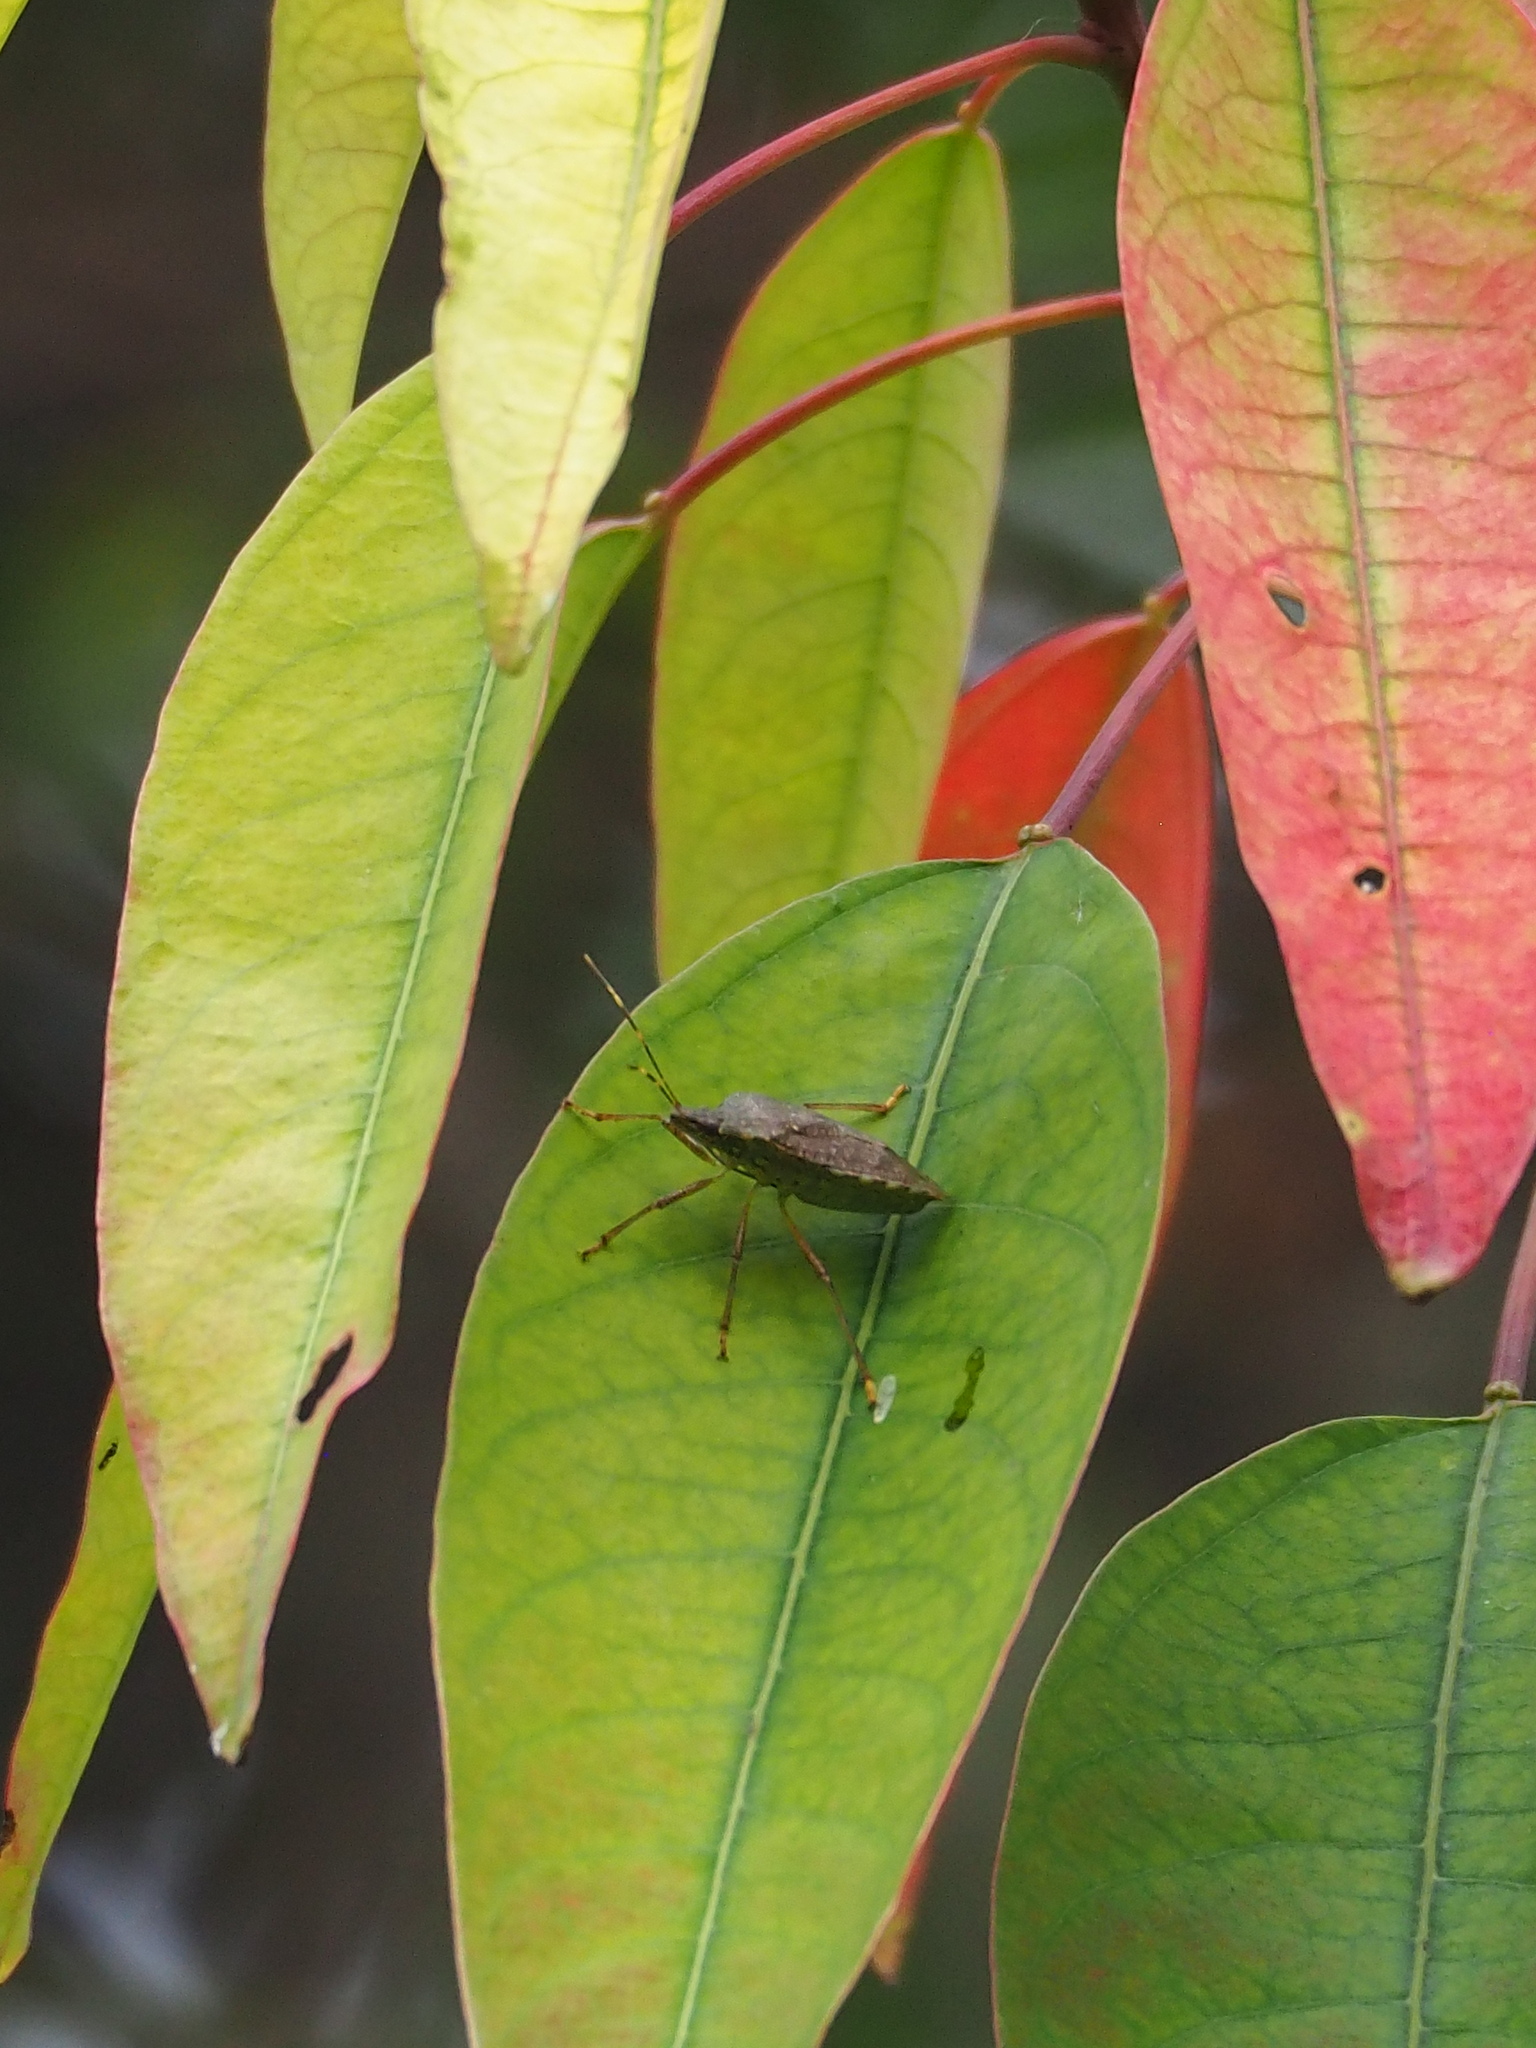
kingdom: Animalia
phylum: Arthropoda
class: Insecta
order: Hemiptera
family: Pentatomidae
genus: Halyomorpha
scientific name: Halyomorpha halys
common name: Brown marmorated stink bug
